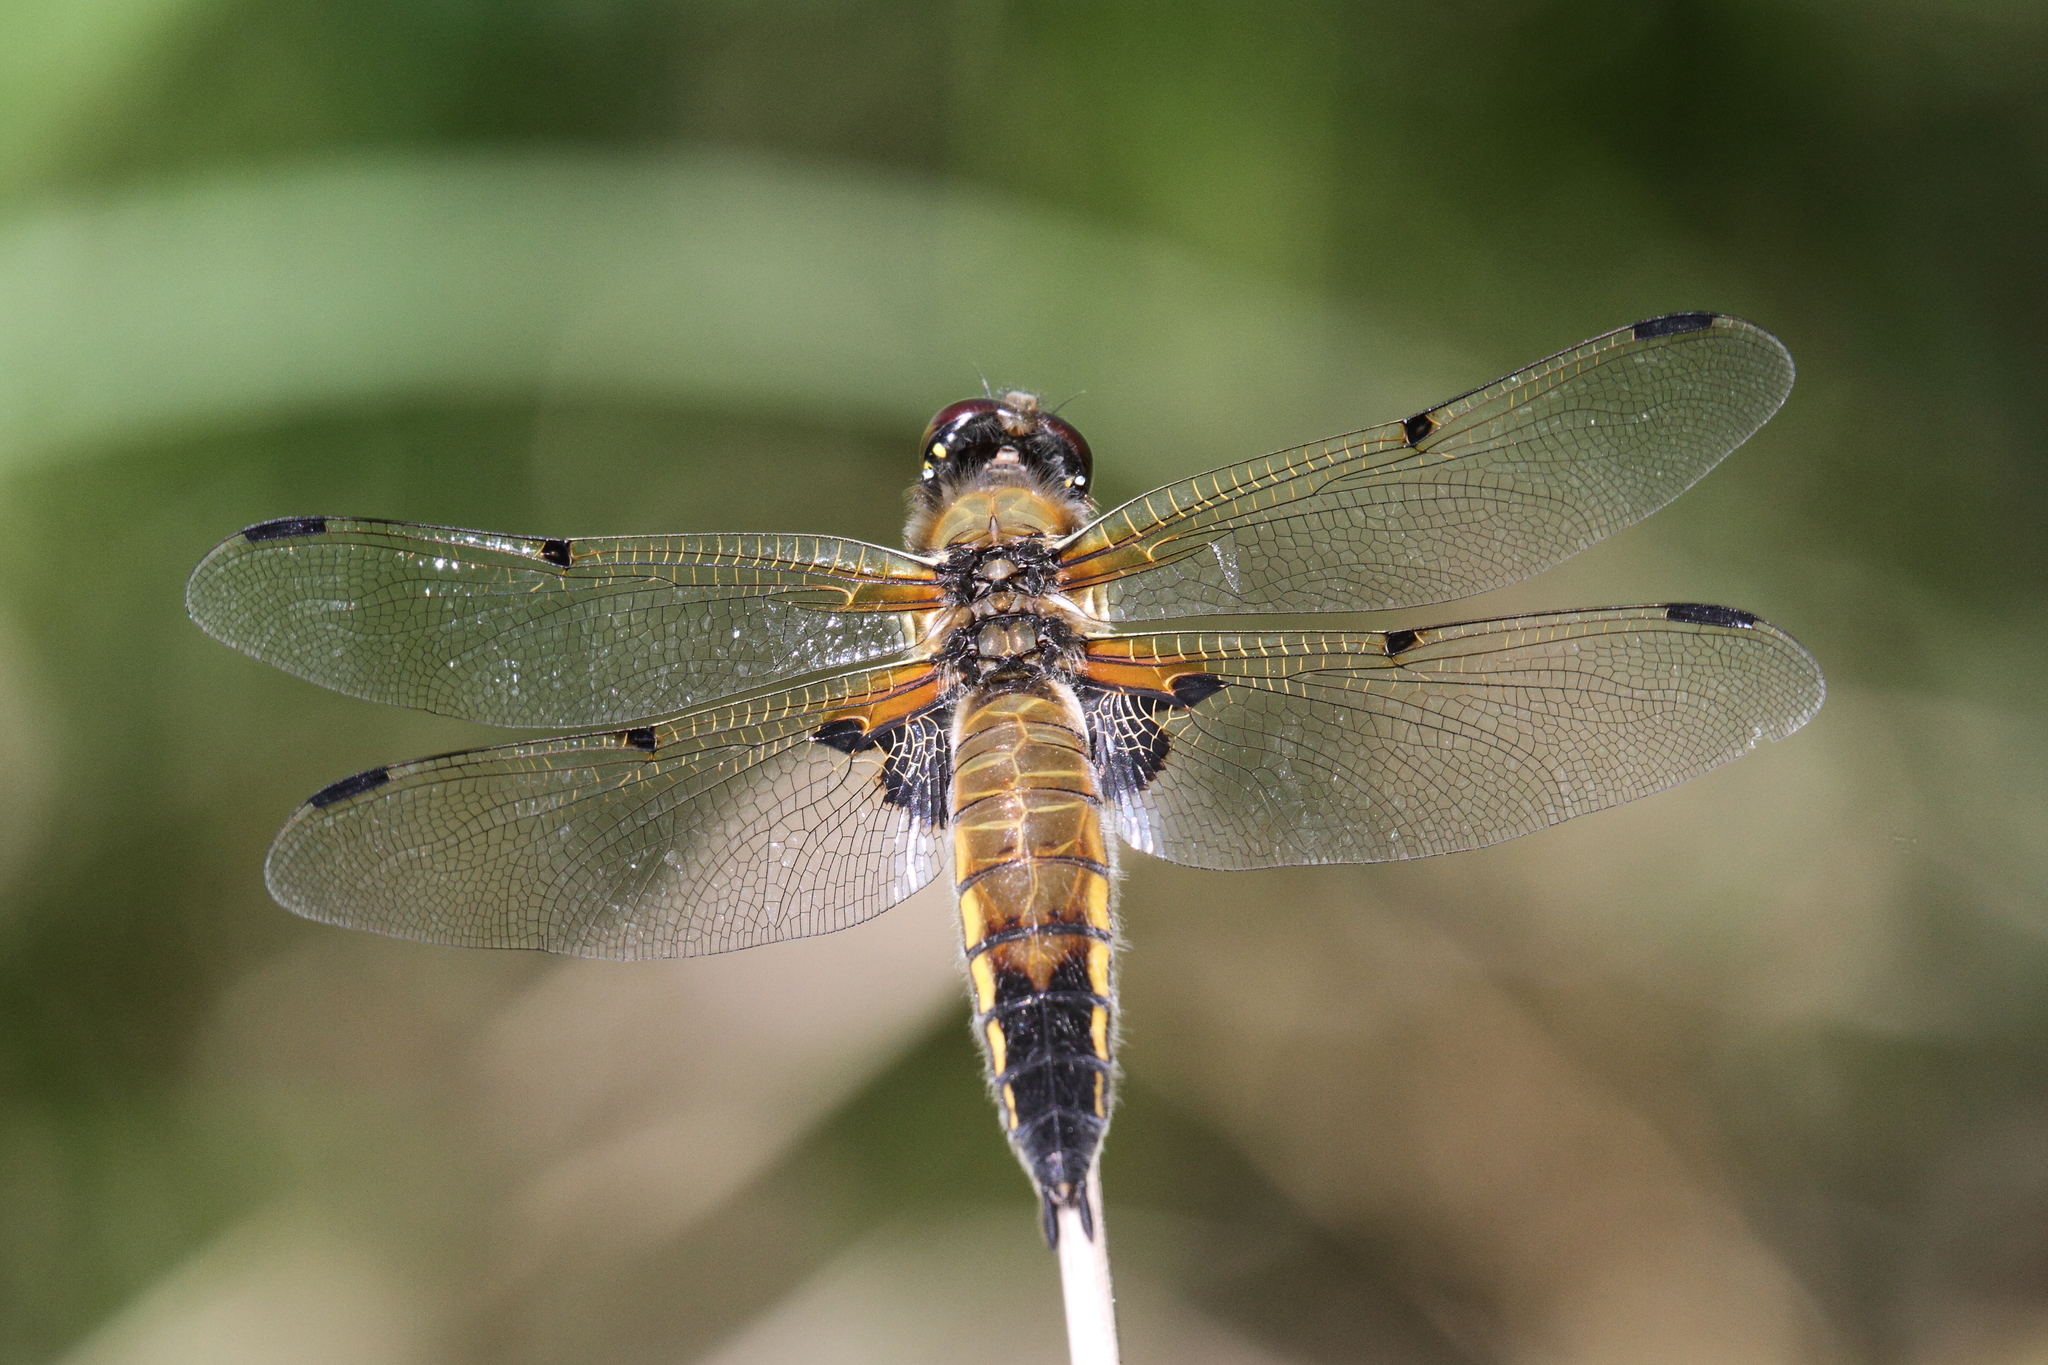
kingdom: Animalia
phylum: Arthropoda
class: Insecta
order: Odonata
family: Libellulidae
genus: Libellula
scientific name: Libellula quadrimaculata
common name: Four-spotted chaser
